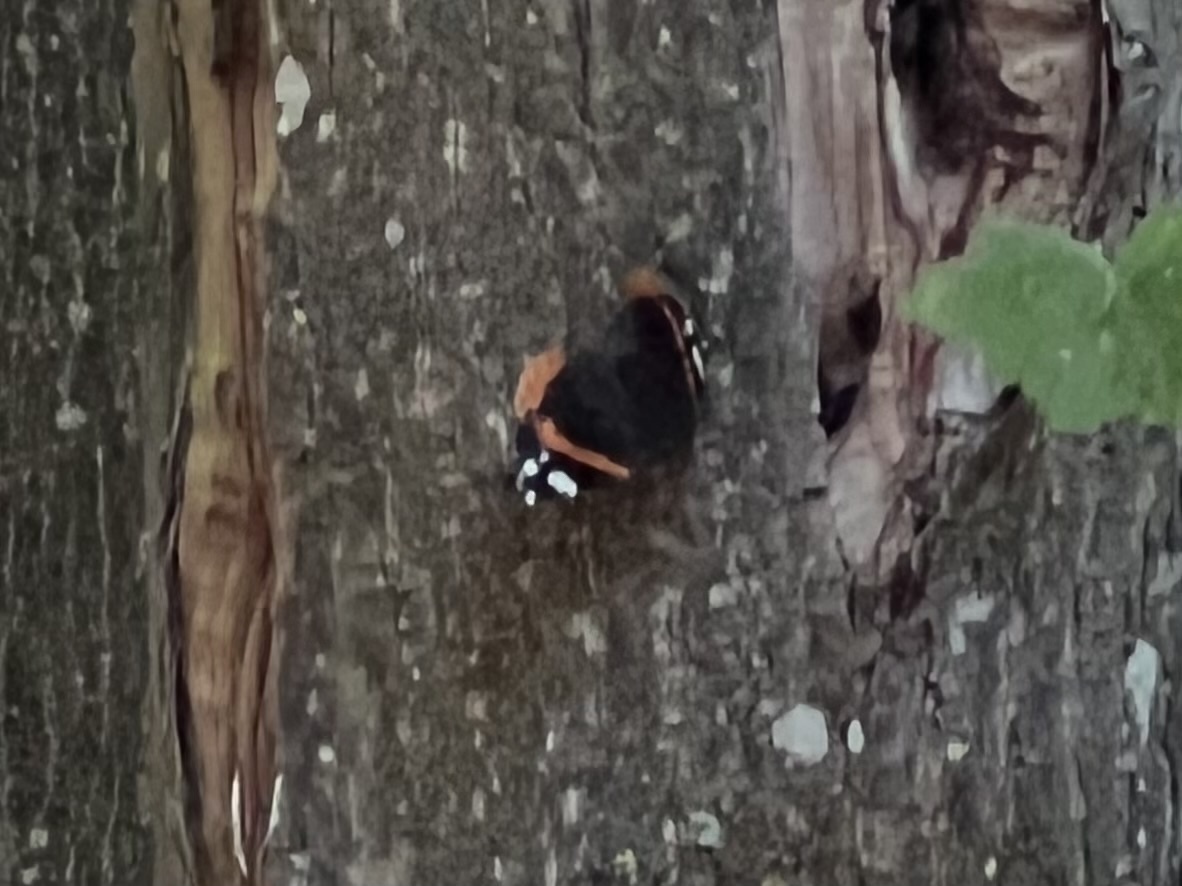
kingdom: Animalia
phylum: Arthropoda
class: Insecta
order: Lepidoptera
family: Nymphalidae
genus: Vanessa
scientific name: Vanessa atalanta
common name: Red admiral
